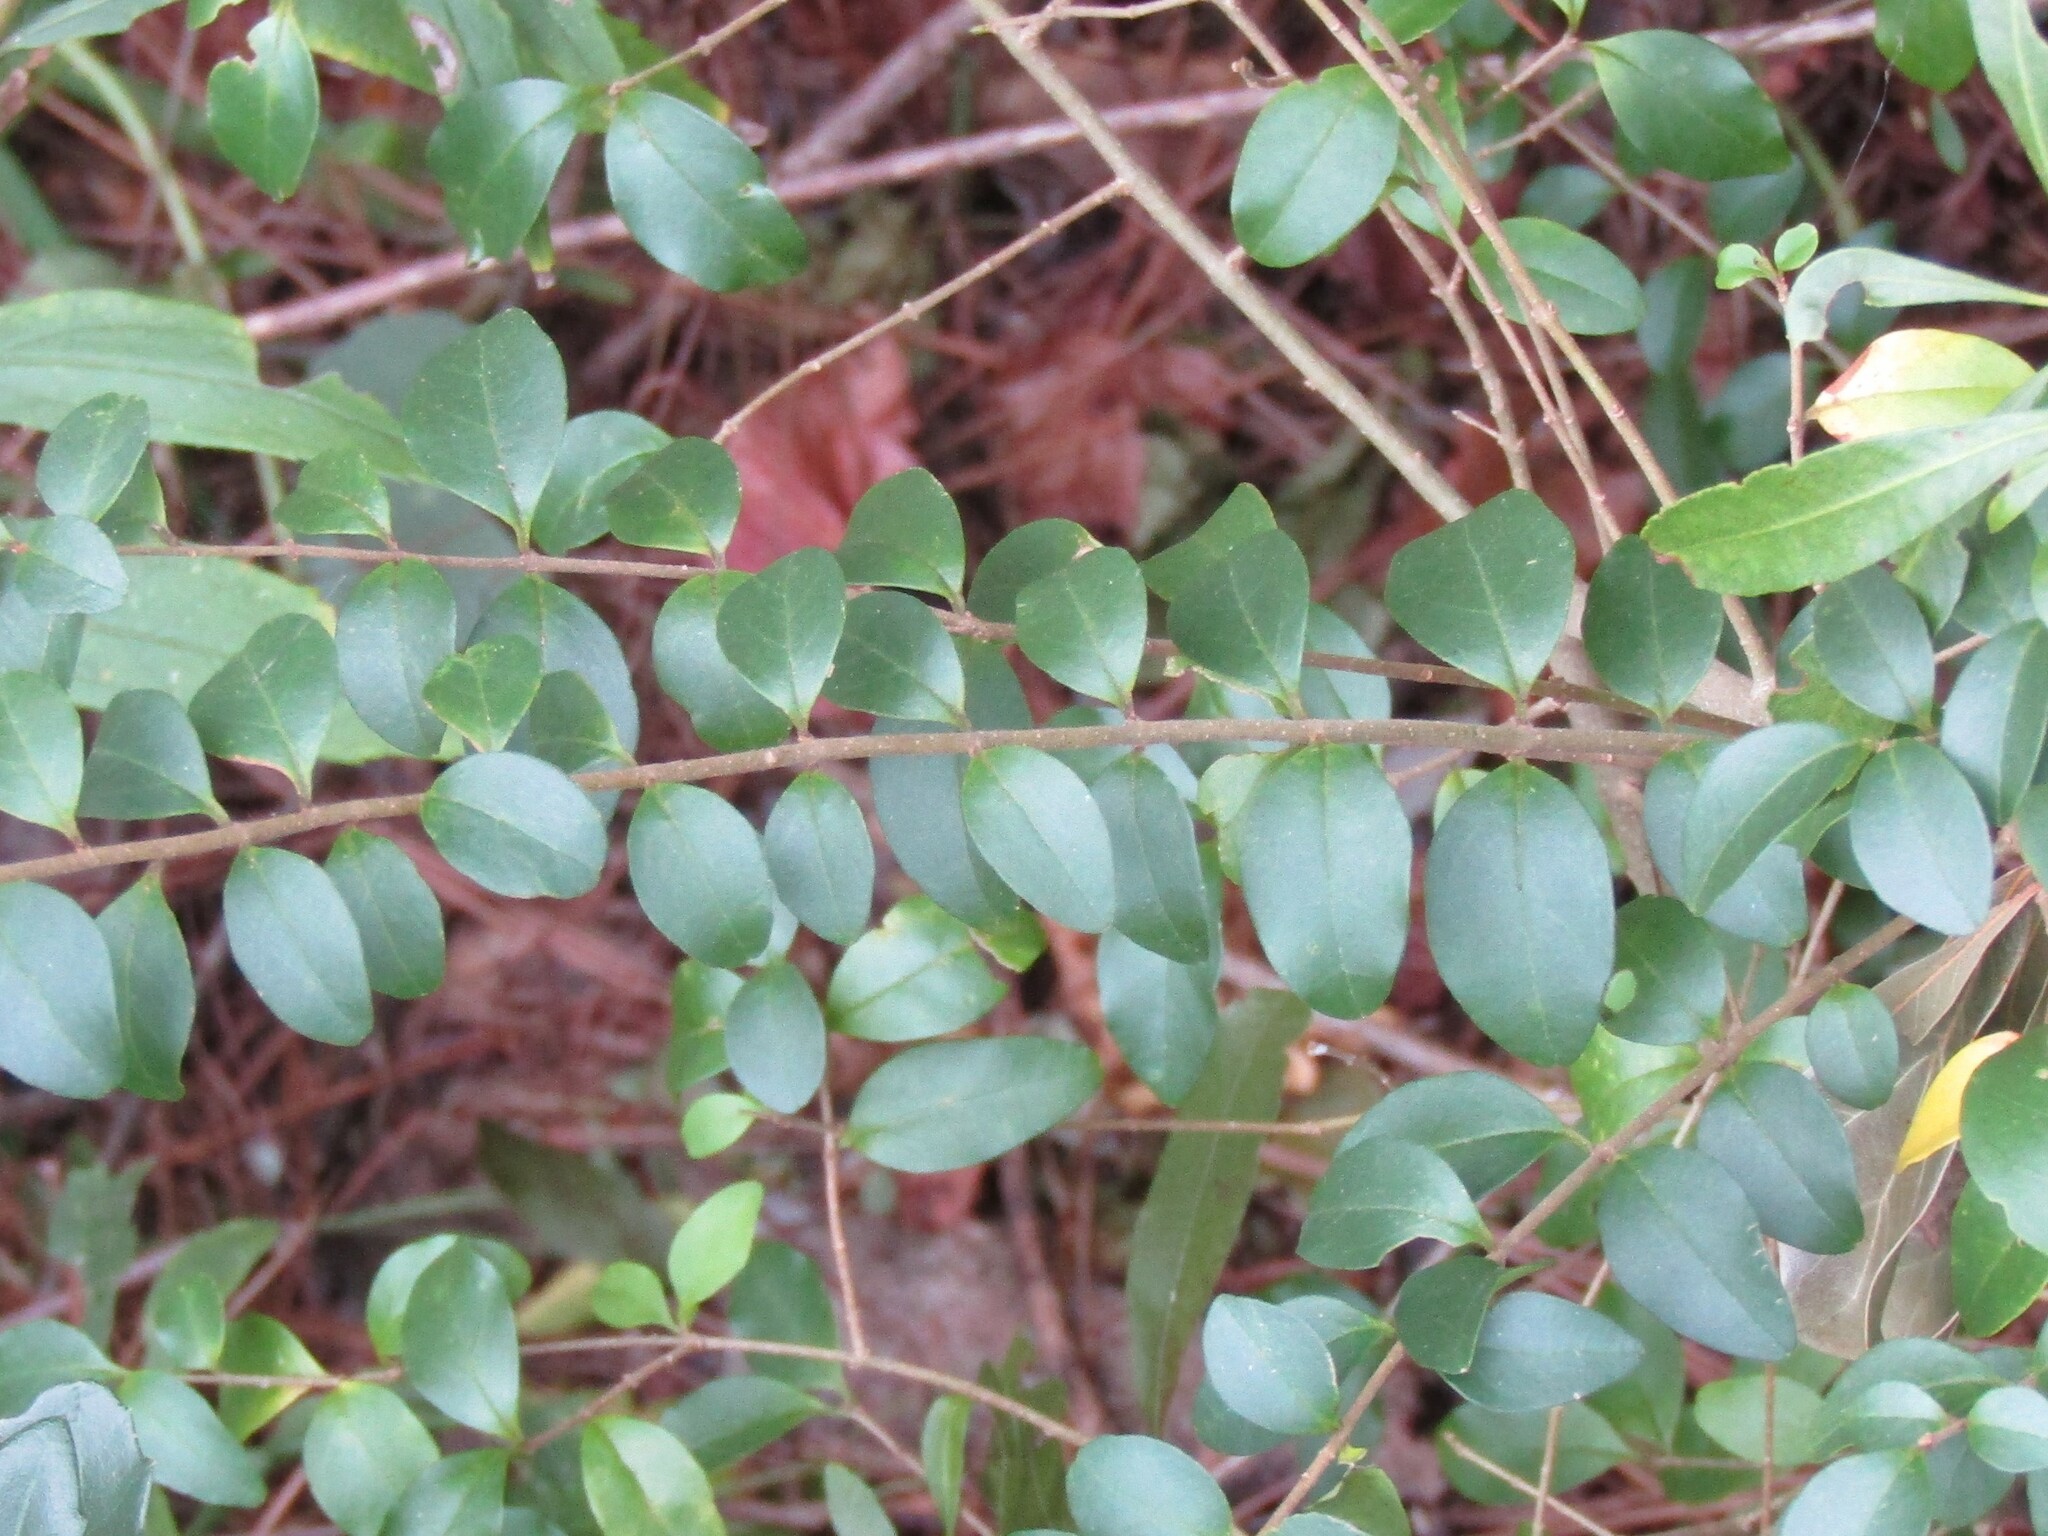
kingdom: Plantae
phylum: Tracheophyta
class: Magnoliopsida
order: Lamiales
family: Oleaceae
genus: Ligustrum
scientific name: Ligustrum sinense
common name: Chinese privet
